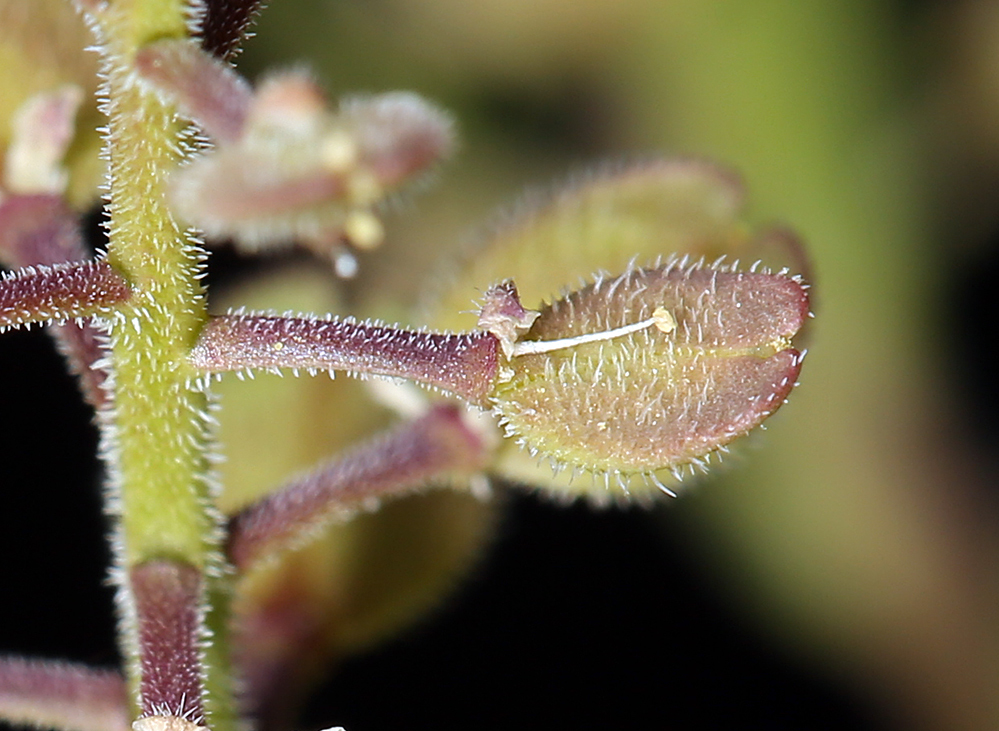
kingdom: Plantae
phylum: Tracheophyta
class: Magnoliopsida
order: Brassicales
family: Brassicaceae
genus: Lepidium
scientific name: Lepidium lasiocarpum
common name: Hairy-pod pepperwort
